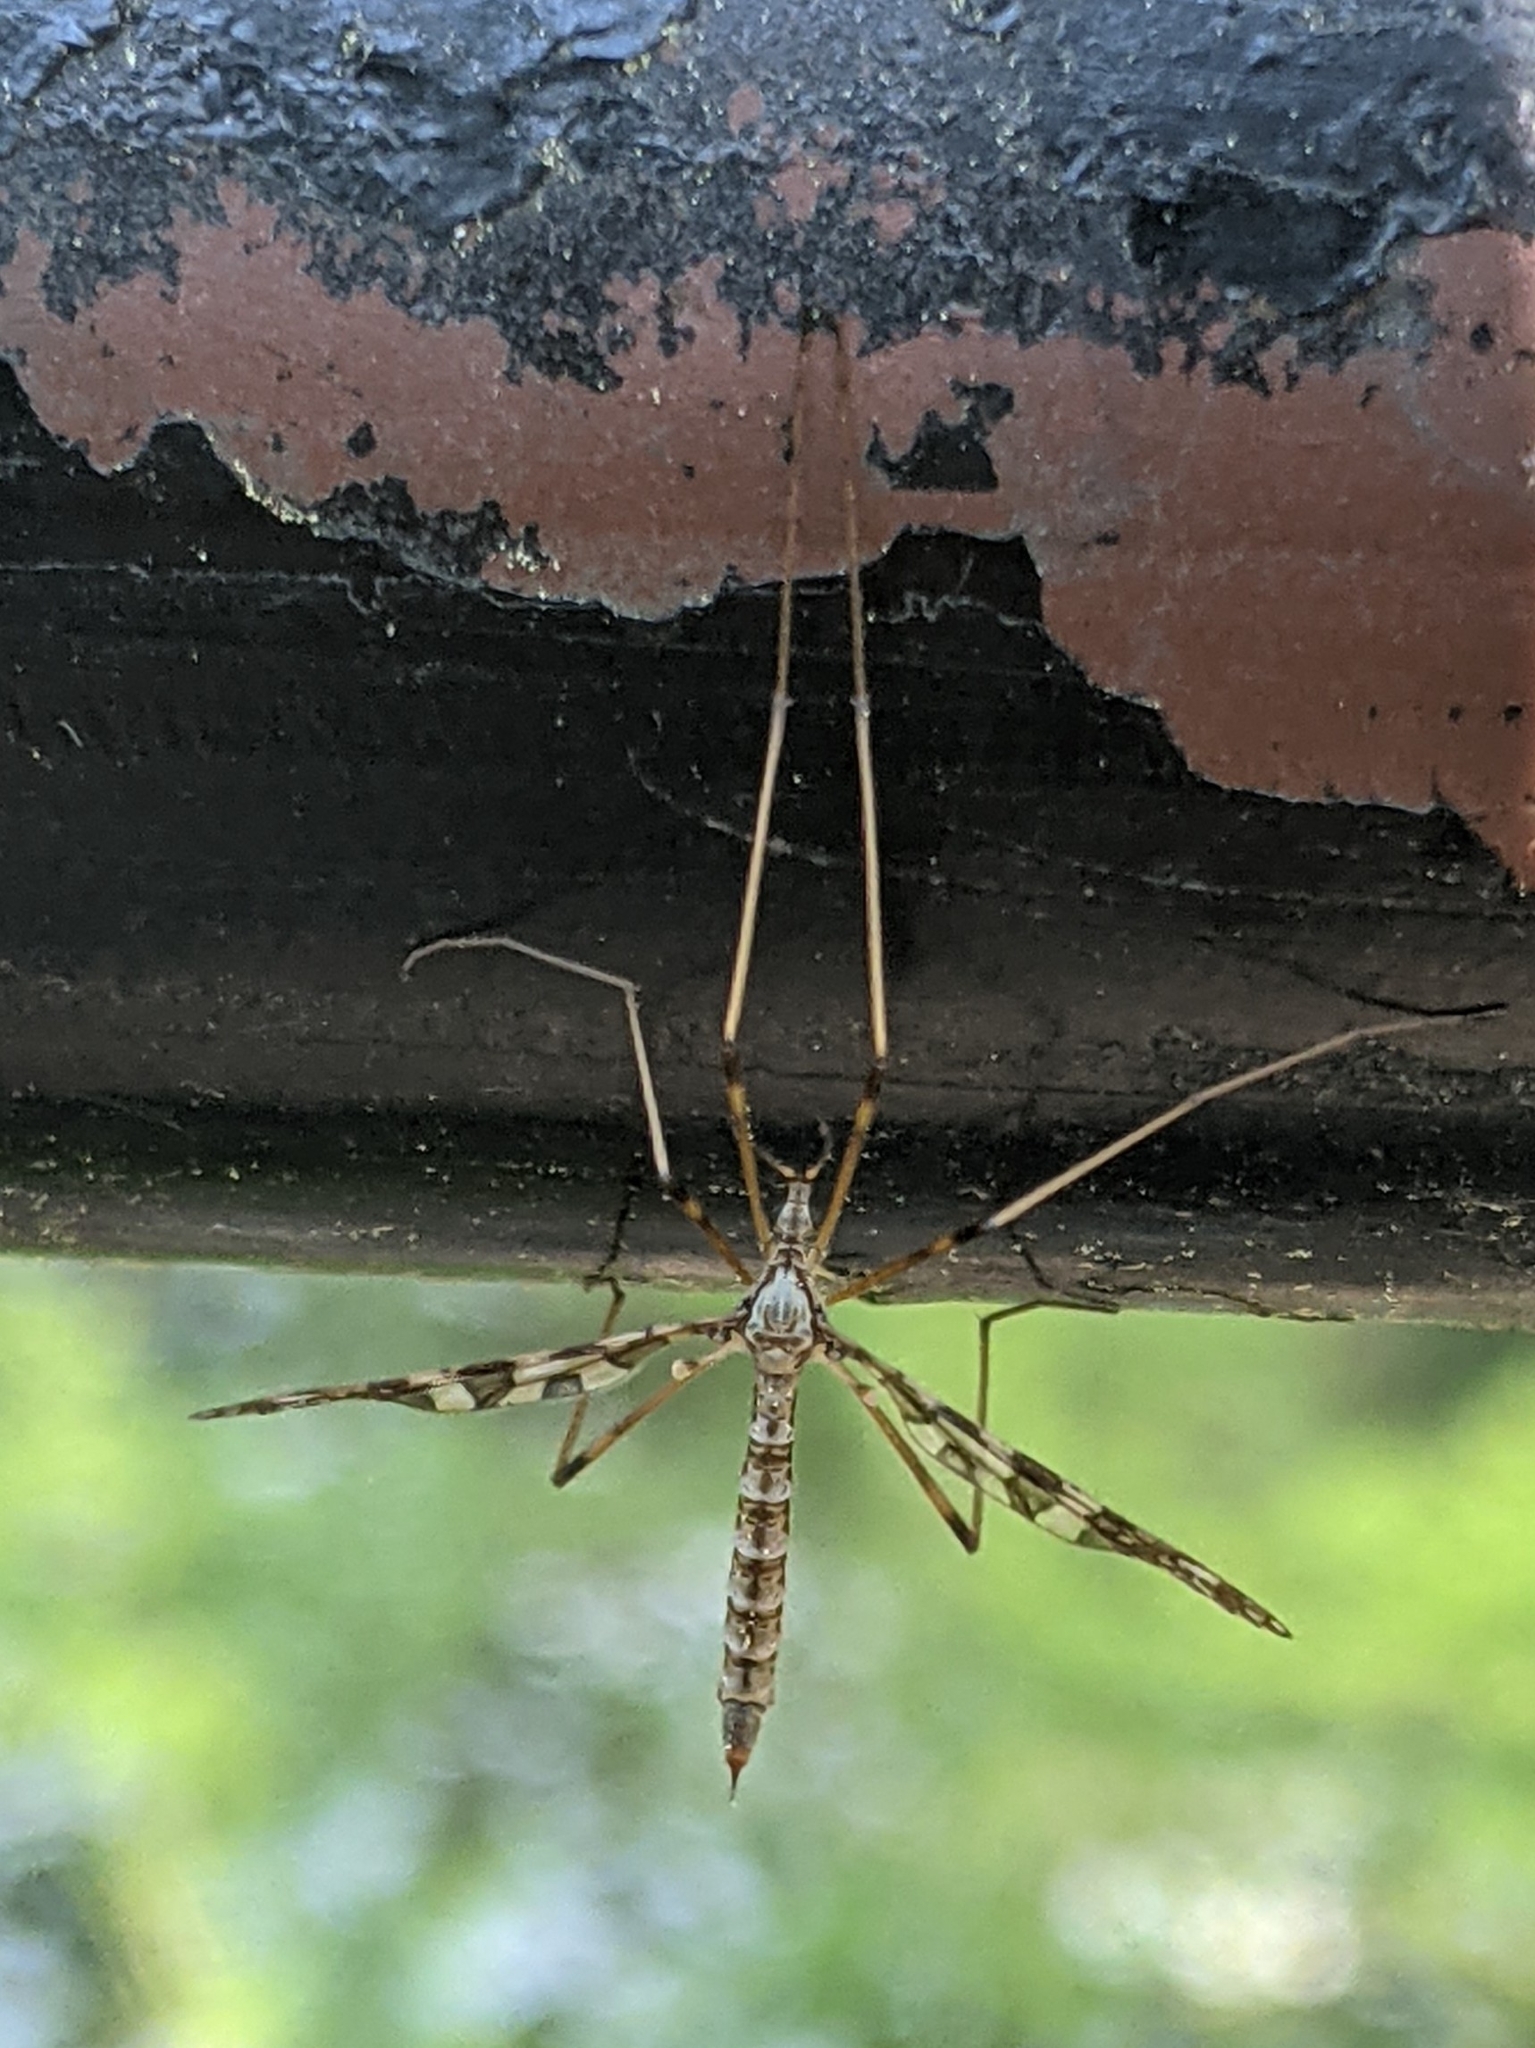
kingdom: Animalia
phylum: Arthropoda
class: Insecta
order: Diptera
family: Limoniidae
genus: Epiphragma
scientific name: Epiphragma fasciapenne
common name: Band-winged crane fly
